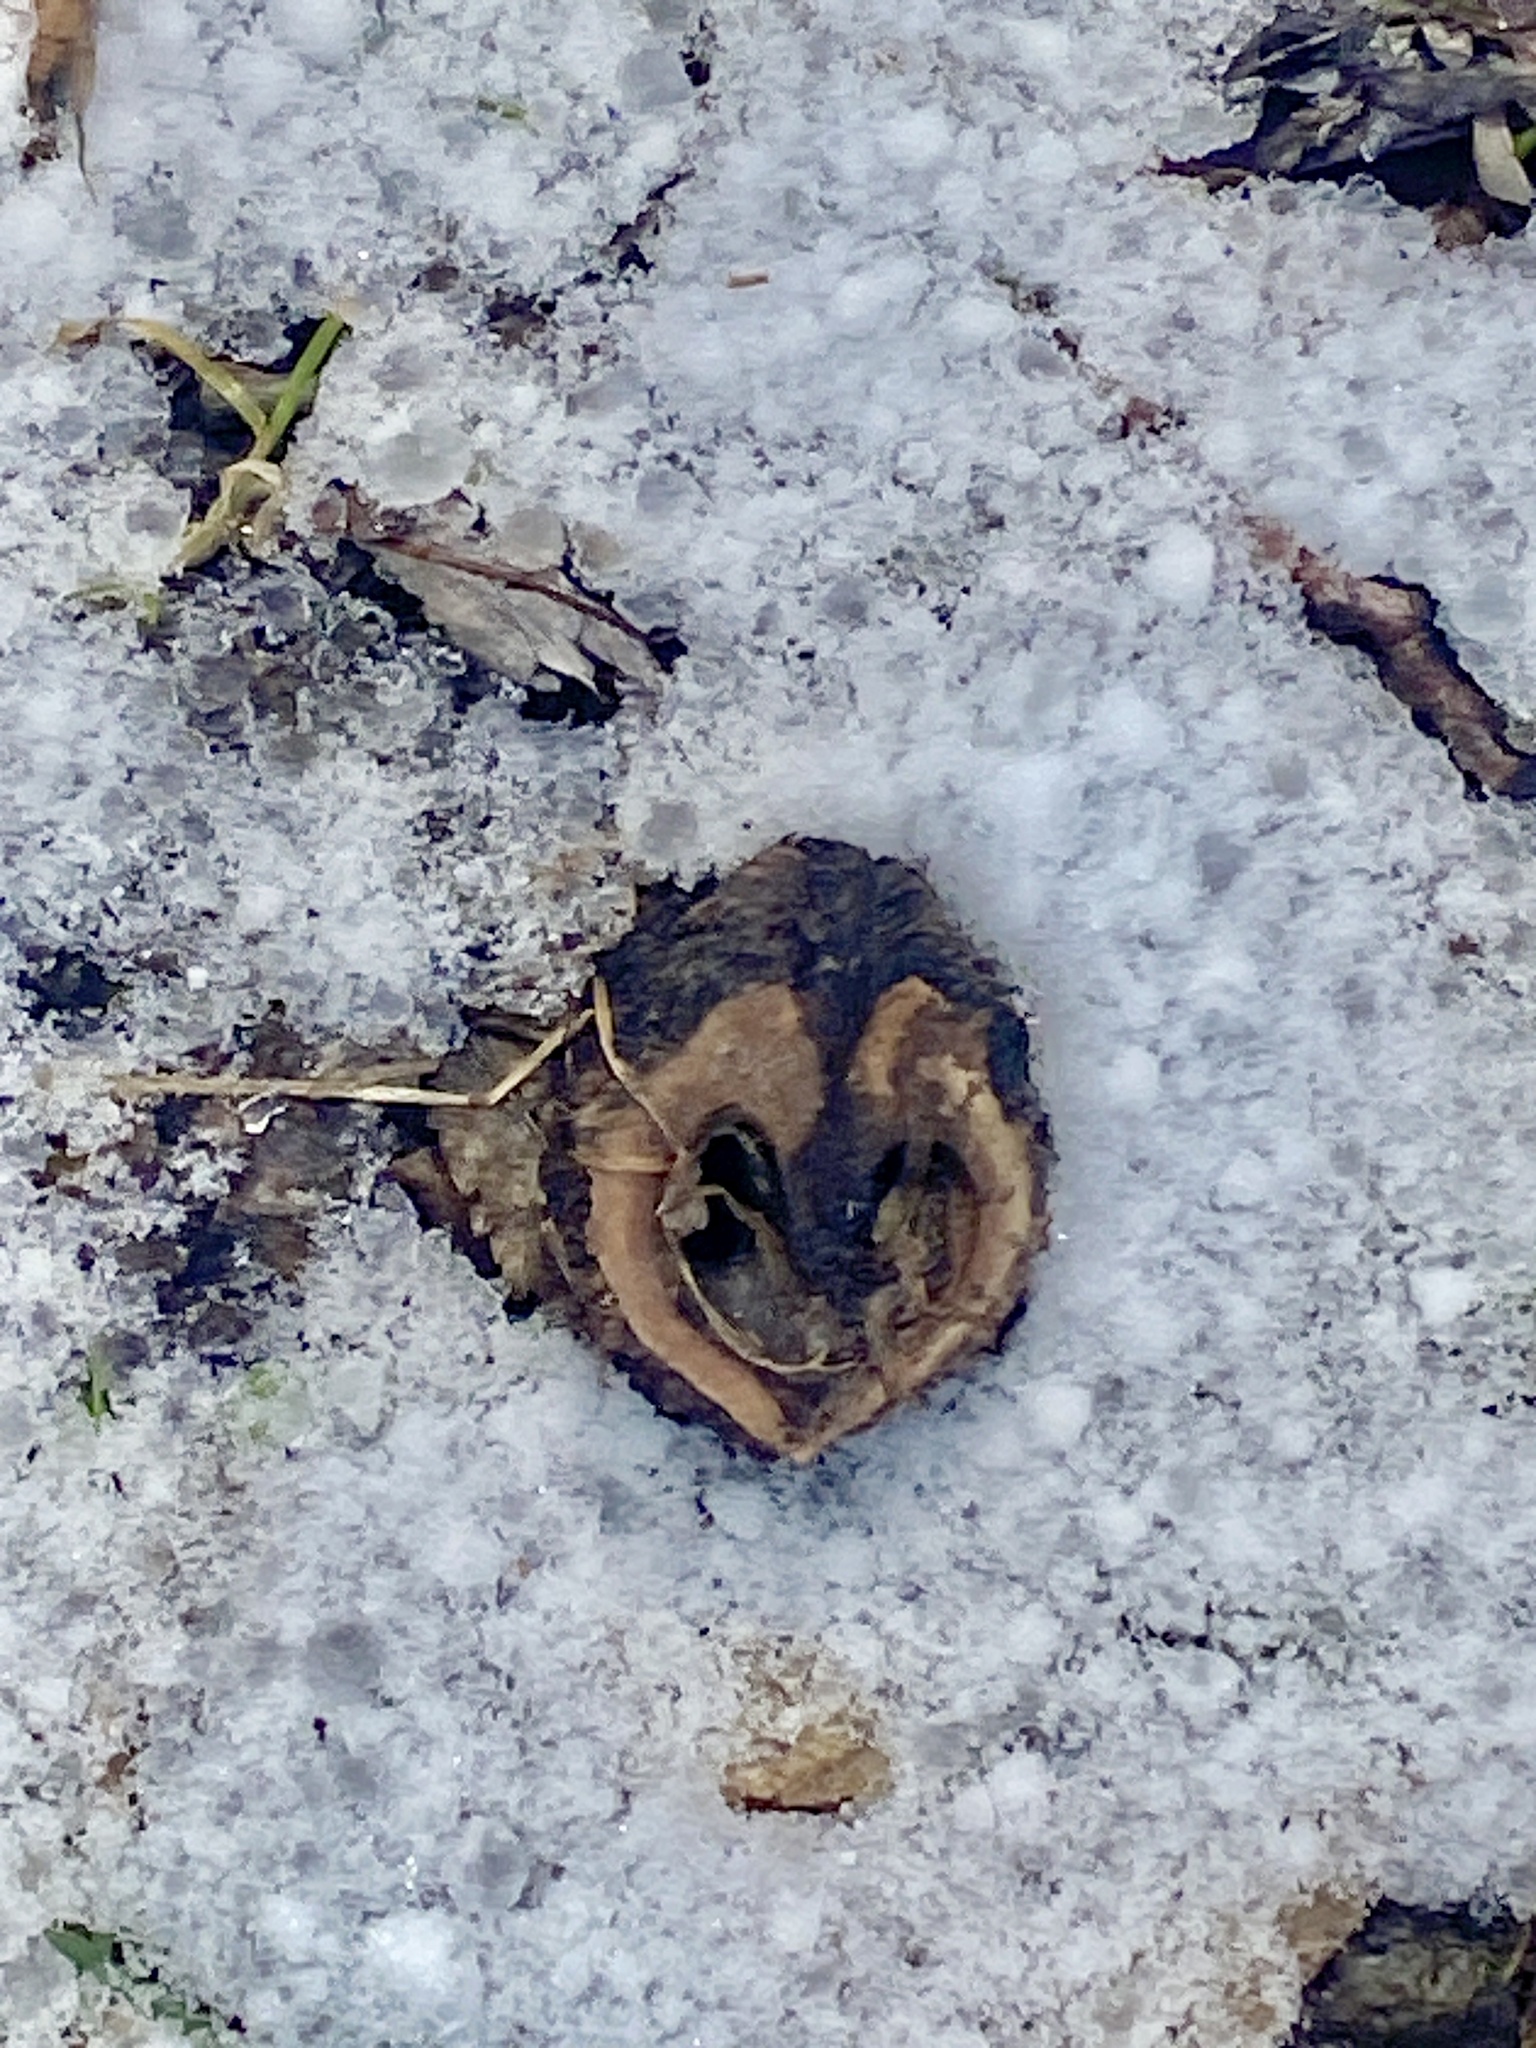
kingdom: Plantae
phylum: Tracheophyta
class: Magnoliopsida
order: Fagales
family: Juglandaceae
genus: Juglans
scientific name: Juglans nigra
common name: Black walnut
